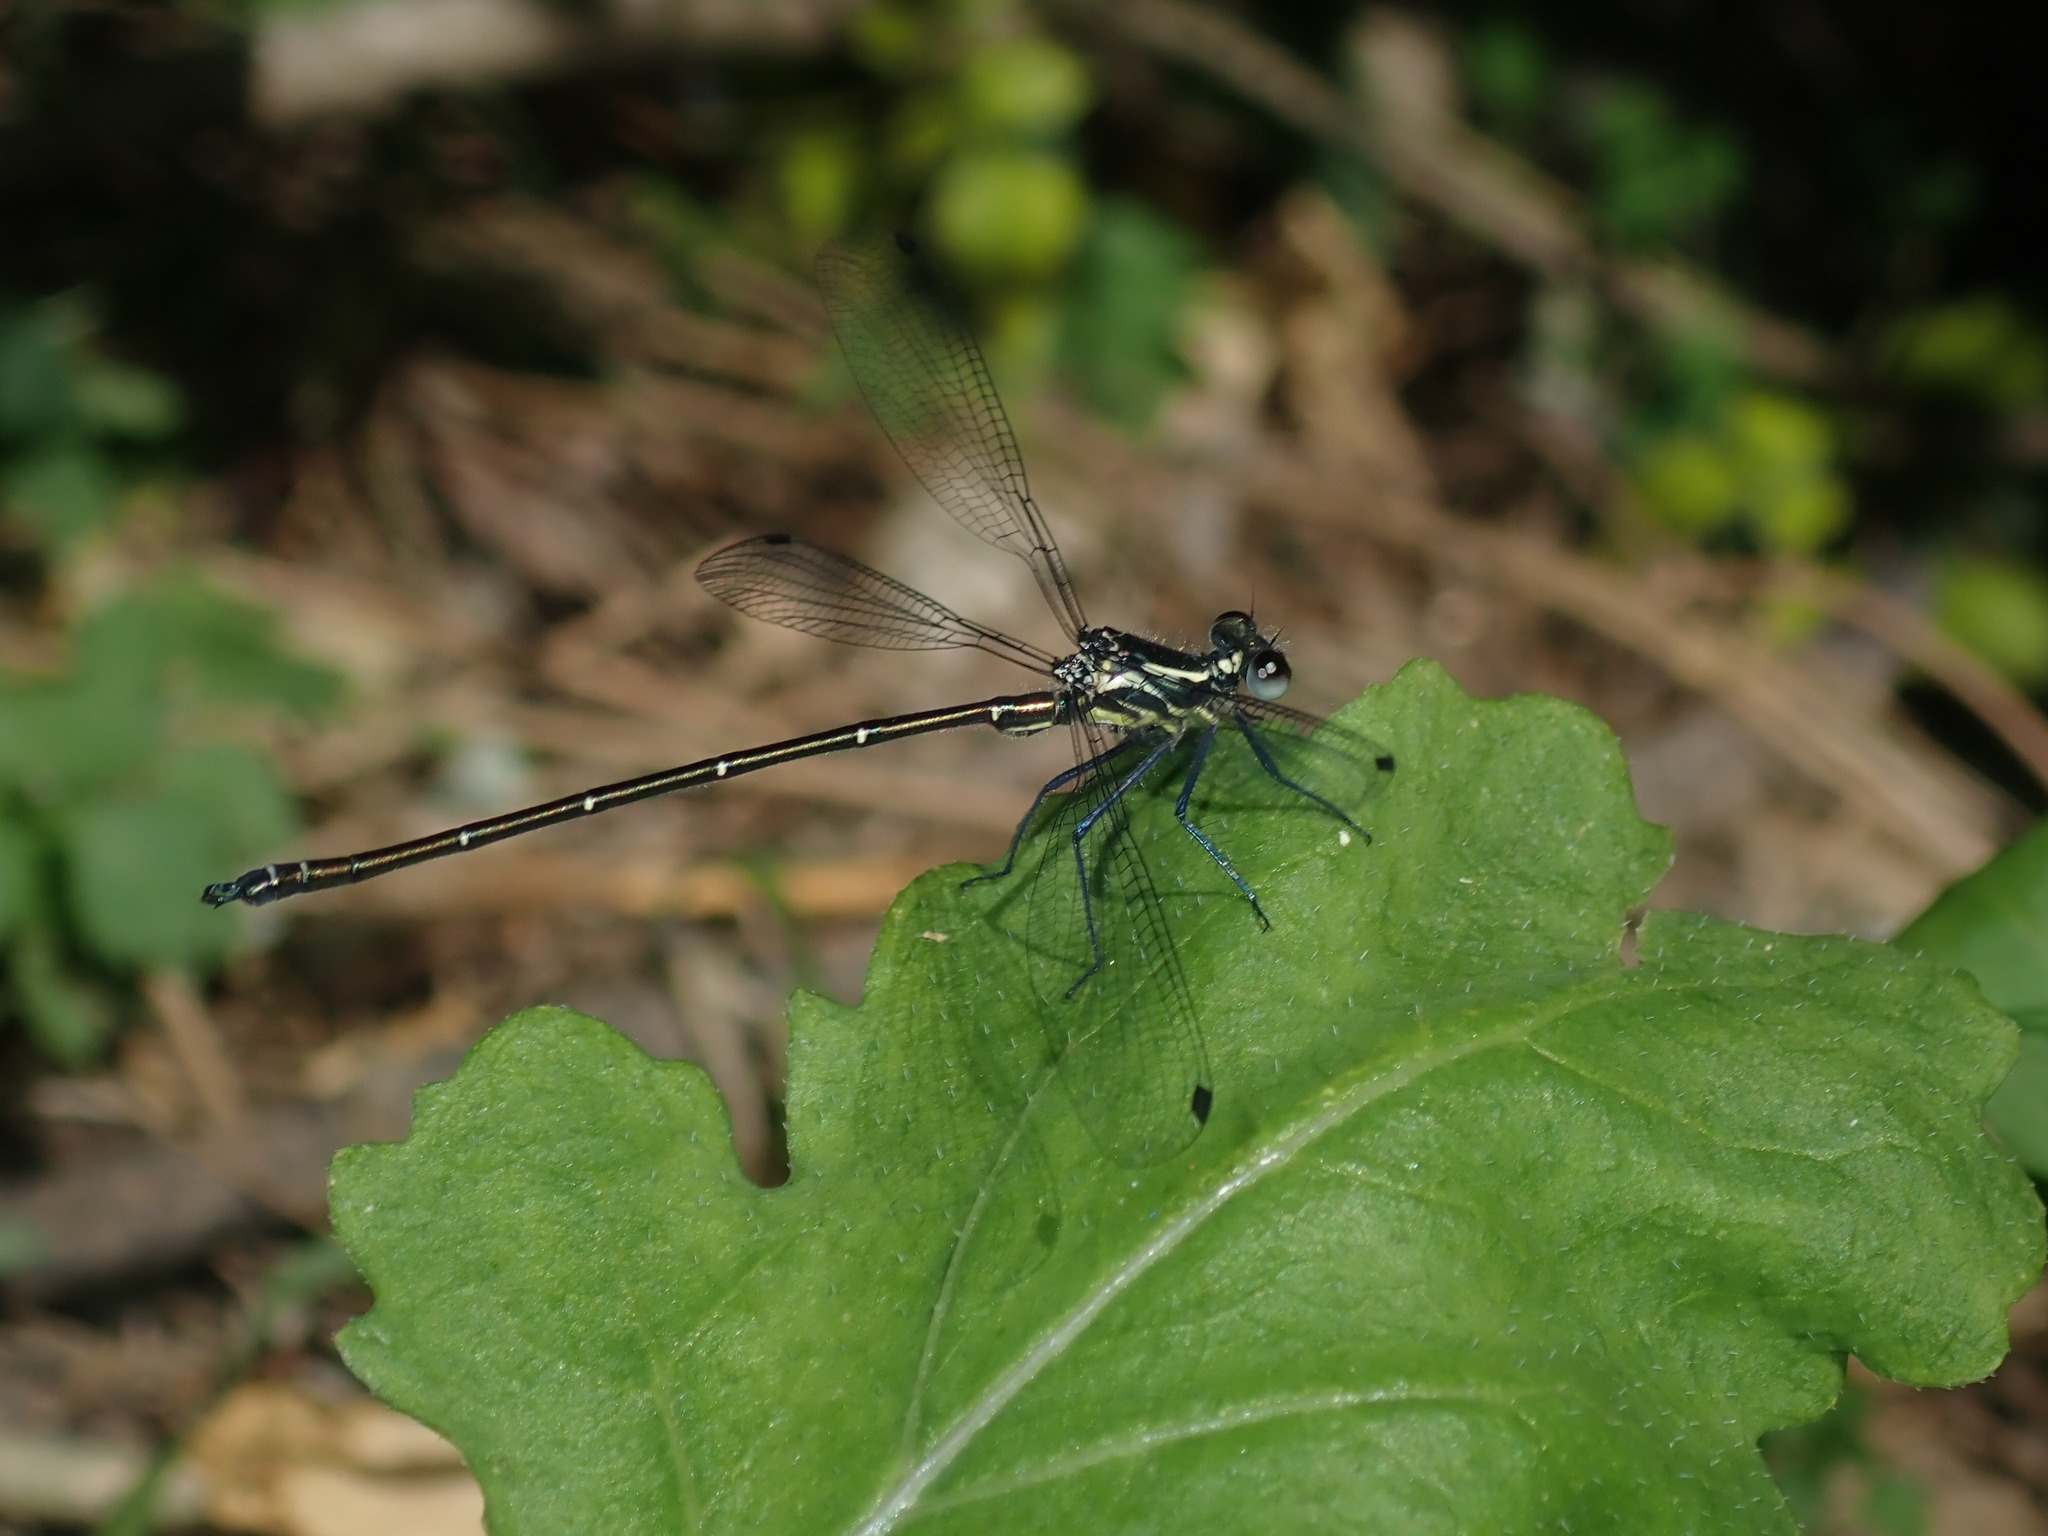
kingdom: Animalia
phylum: Arthropoda
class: Insecta
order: Odonata
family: Argiolestidae
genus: Austroargiolestes
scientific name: Austroargiolestes icteromelas
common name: Common flatwing
